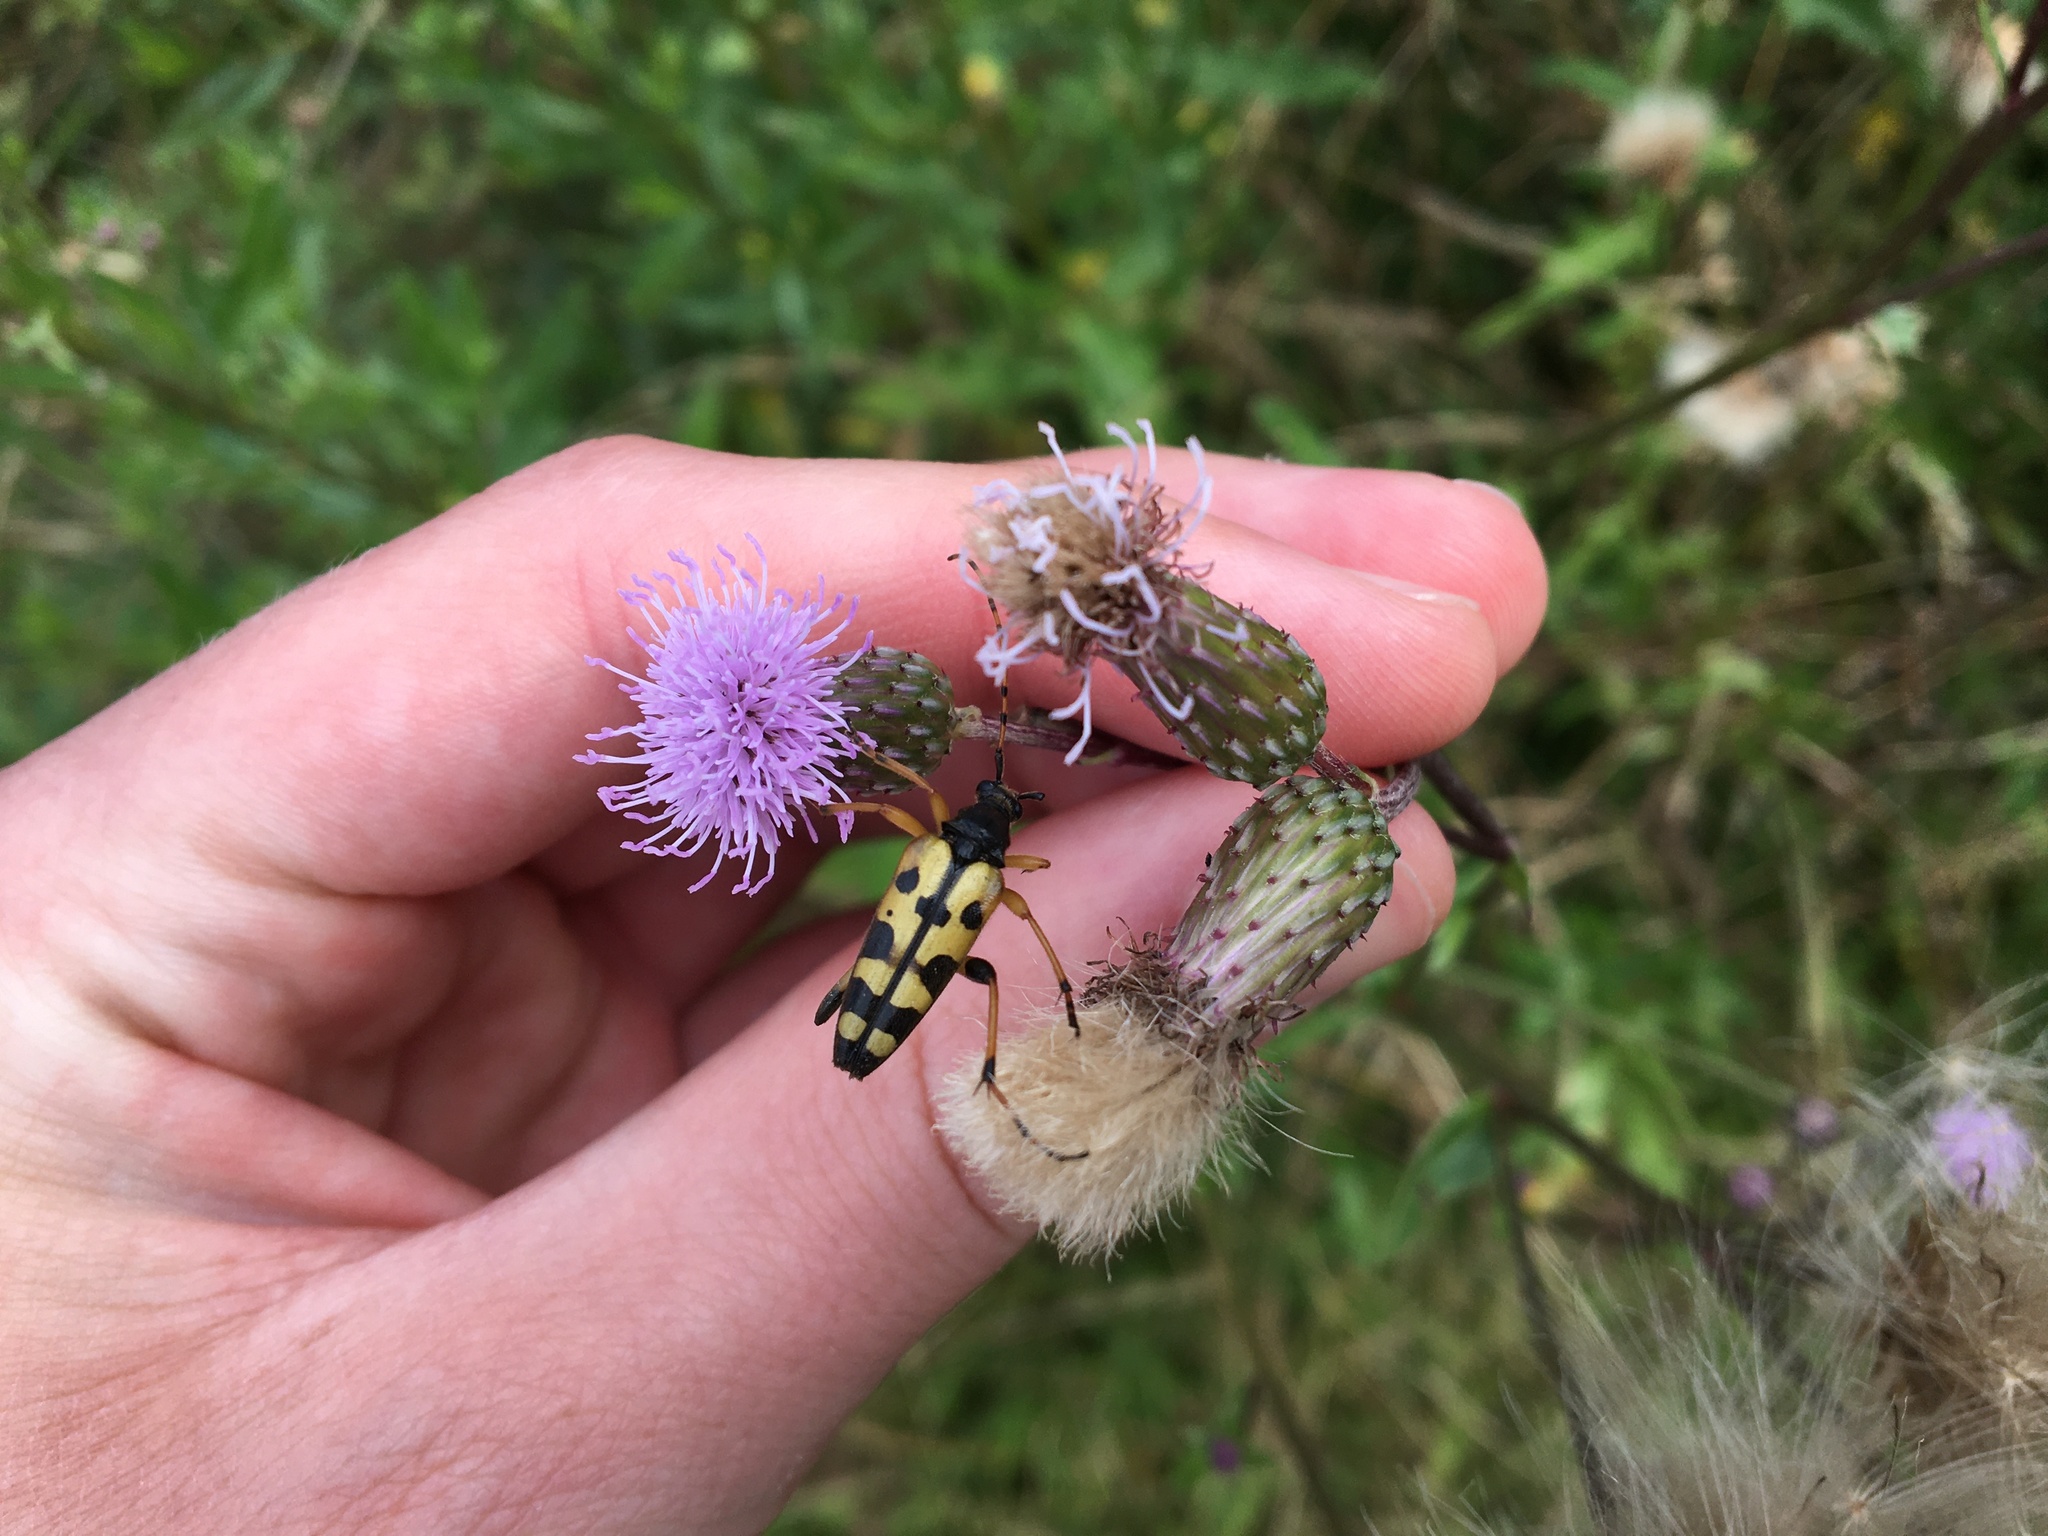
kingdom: Animalia
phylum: Arthropoda
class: Insecta
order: Coleoptera
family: Cerambycidae
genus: Rutpela
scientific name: Rutpela maculata
